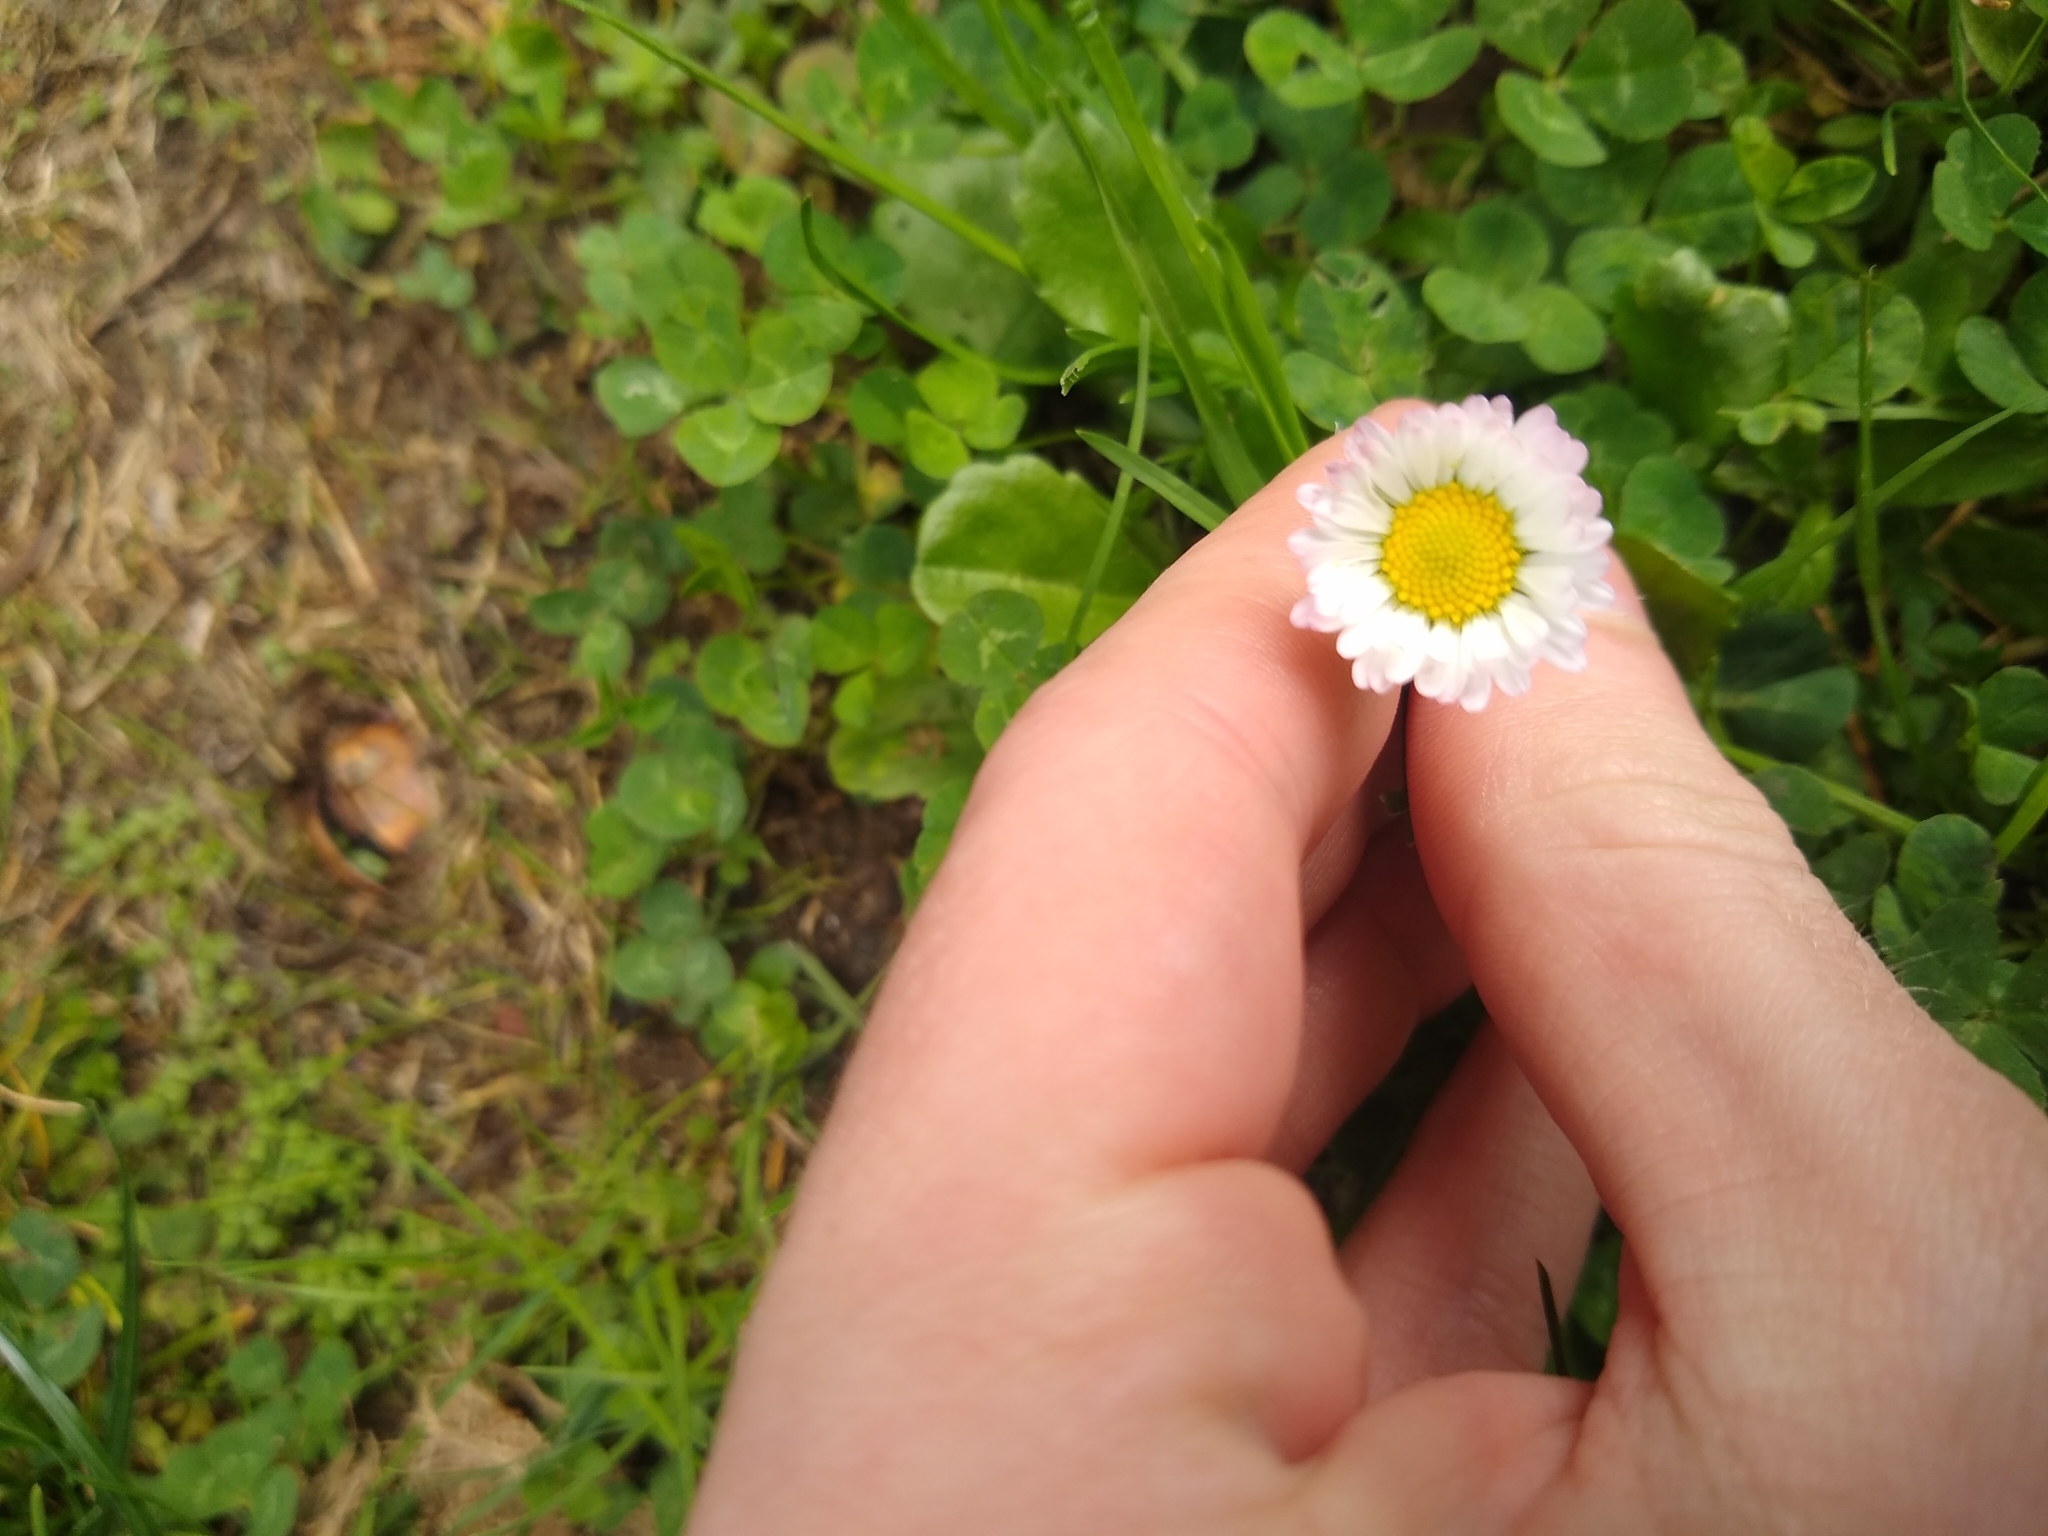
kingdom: Plantae
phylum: Tracheophyta
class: Magnoliopsida
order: Asterales
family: Asteraceae
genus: Bellis
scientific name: Bellis perennis
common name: Lawndaisy
